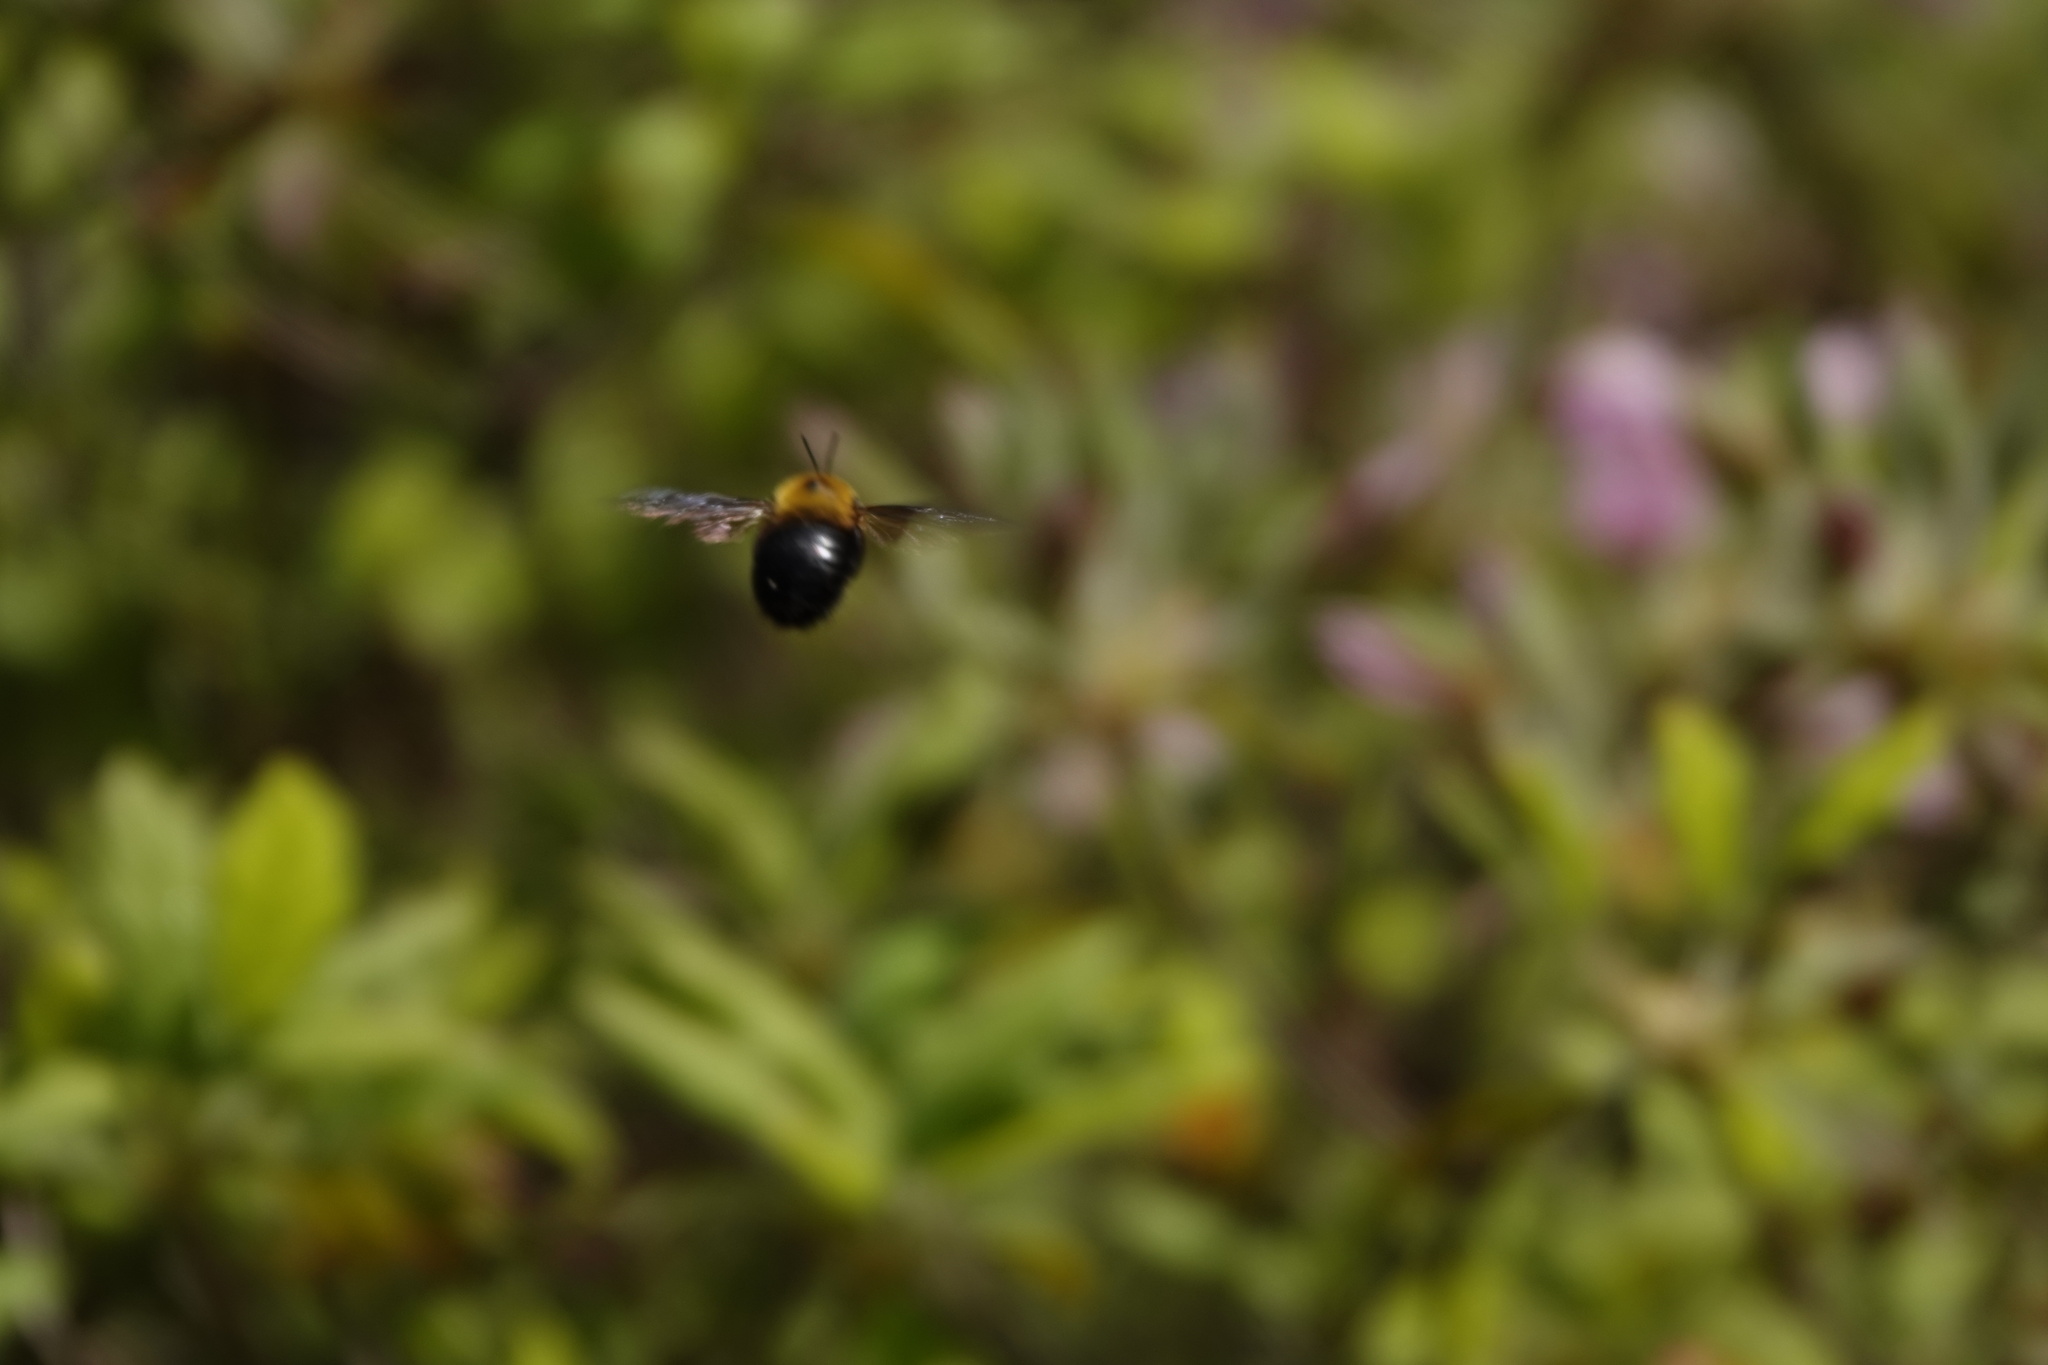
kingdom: Animalia
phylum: Arthropoda
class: Insecta
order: Hymenoptera
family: Apidae
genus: Xylocopa
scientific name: Xylocopa appendiculata
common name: Japanese carpenter bee
